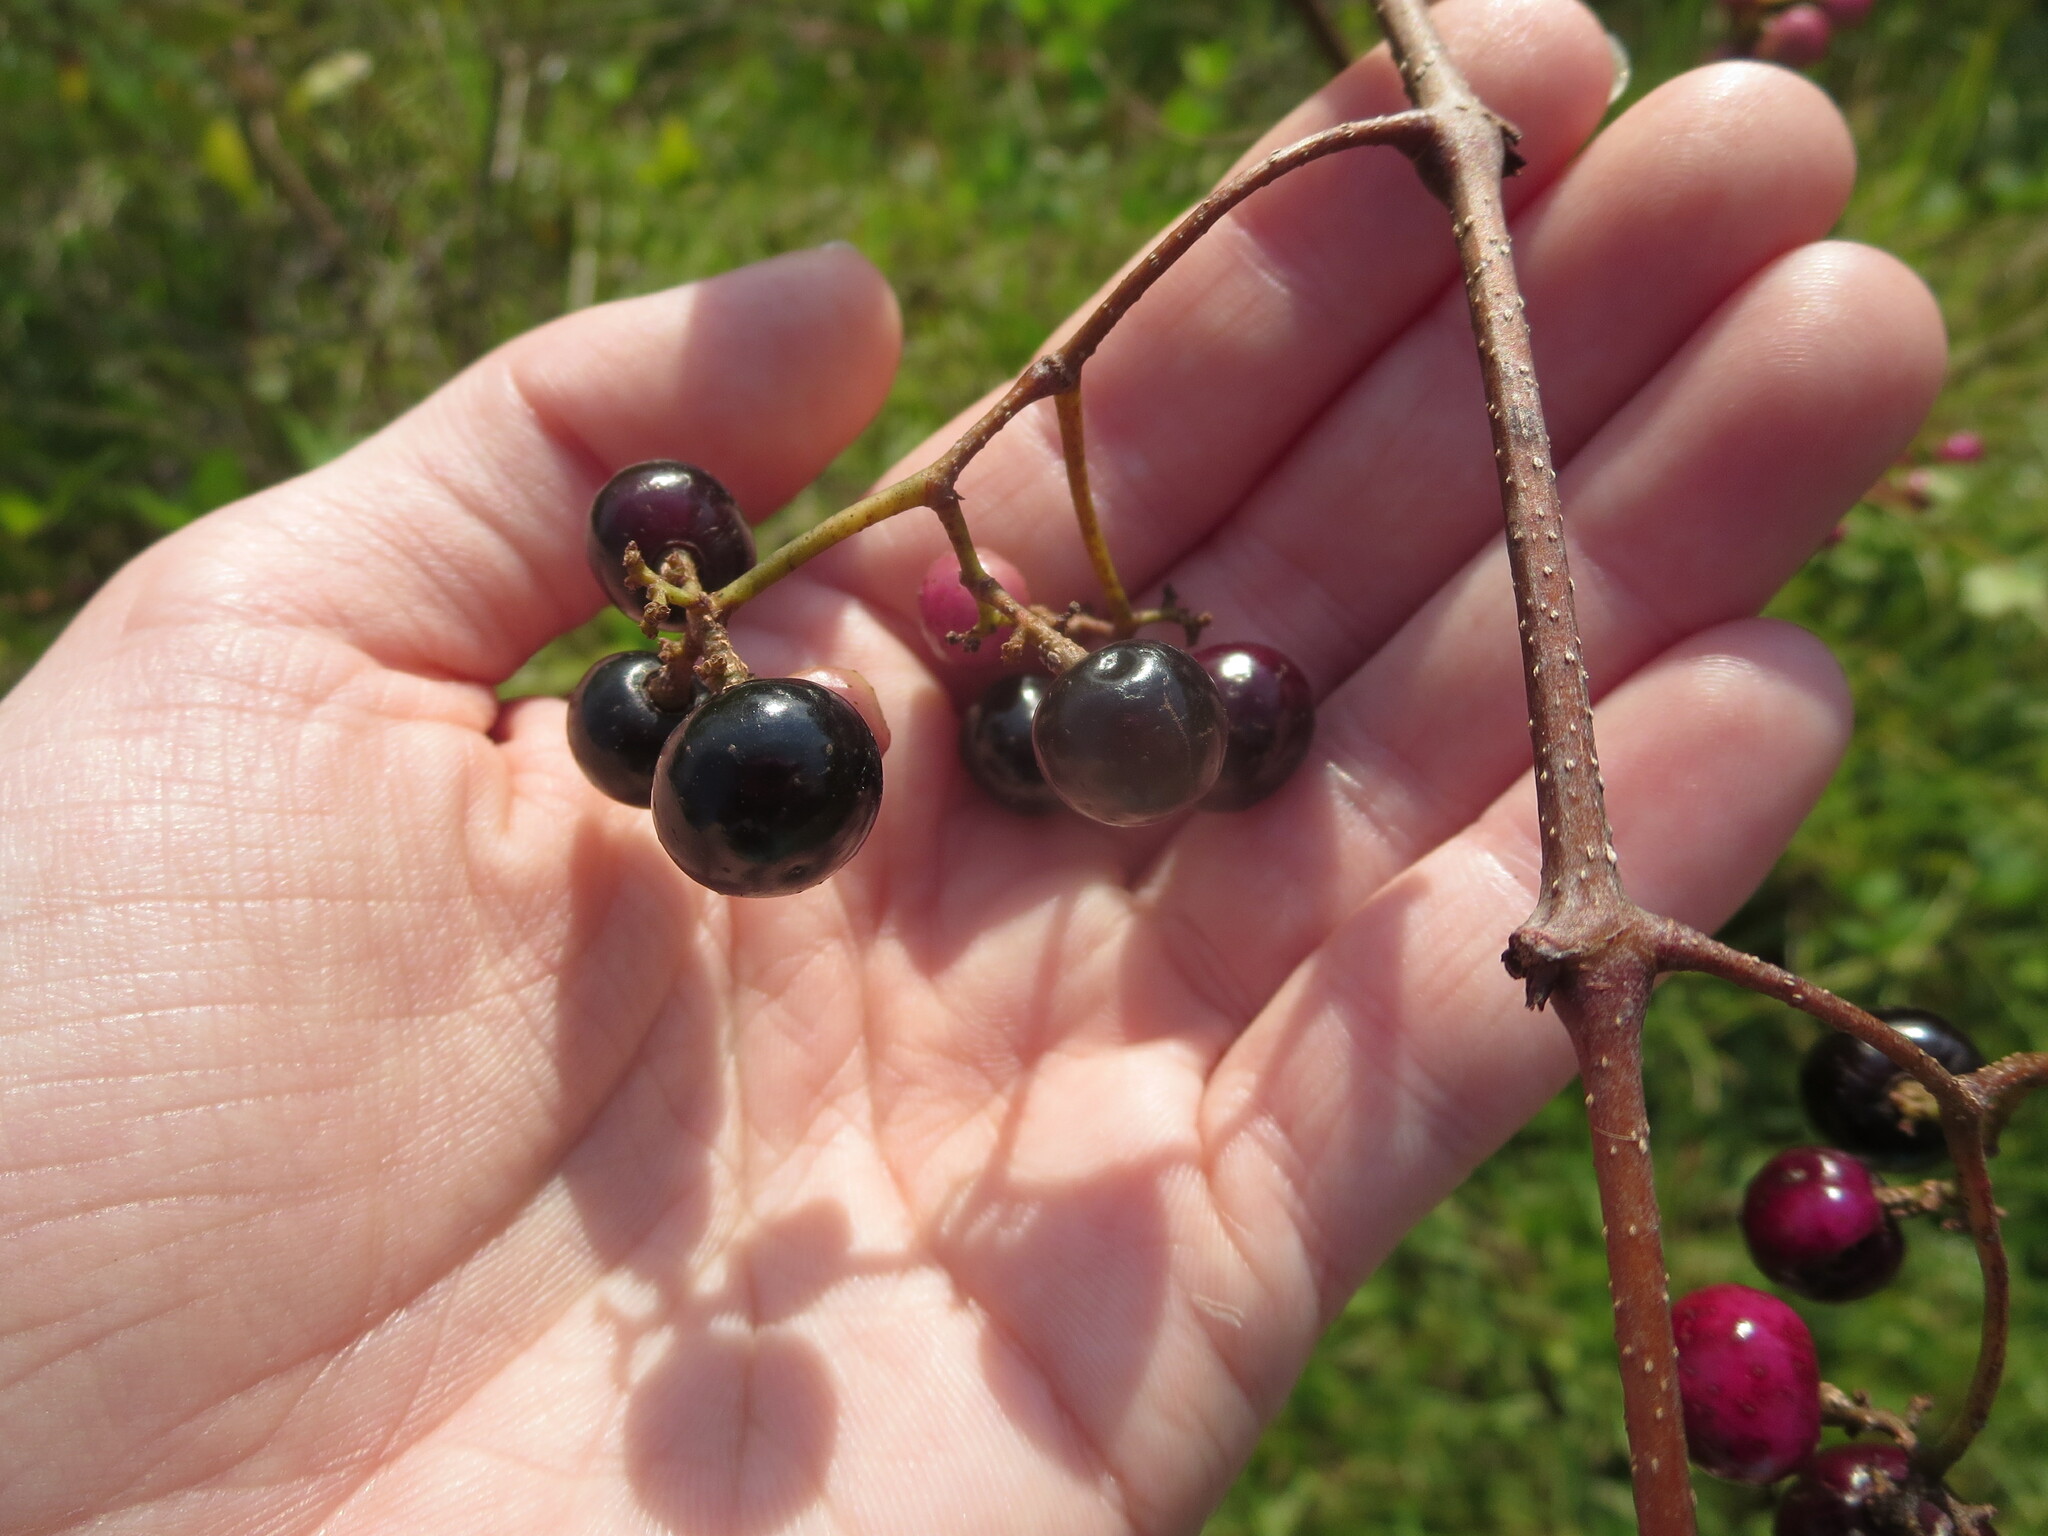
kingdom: Plantae
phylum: Tracheophyta
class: Magnoliopsida
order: Vitales
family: Vitaceae
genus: Nekemias
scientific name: Nekemias arborea
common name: Peppervine
